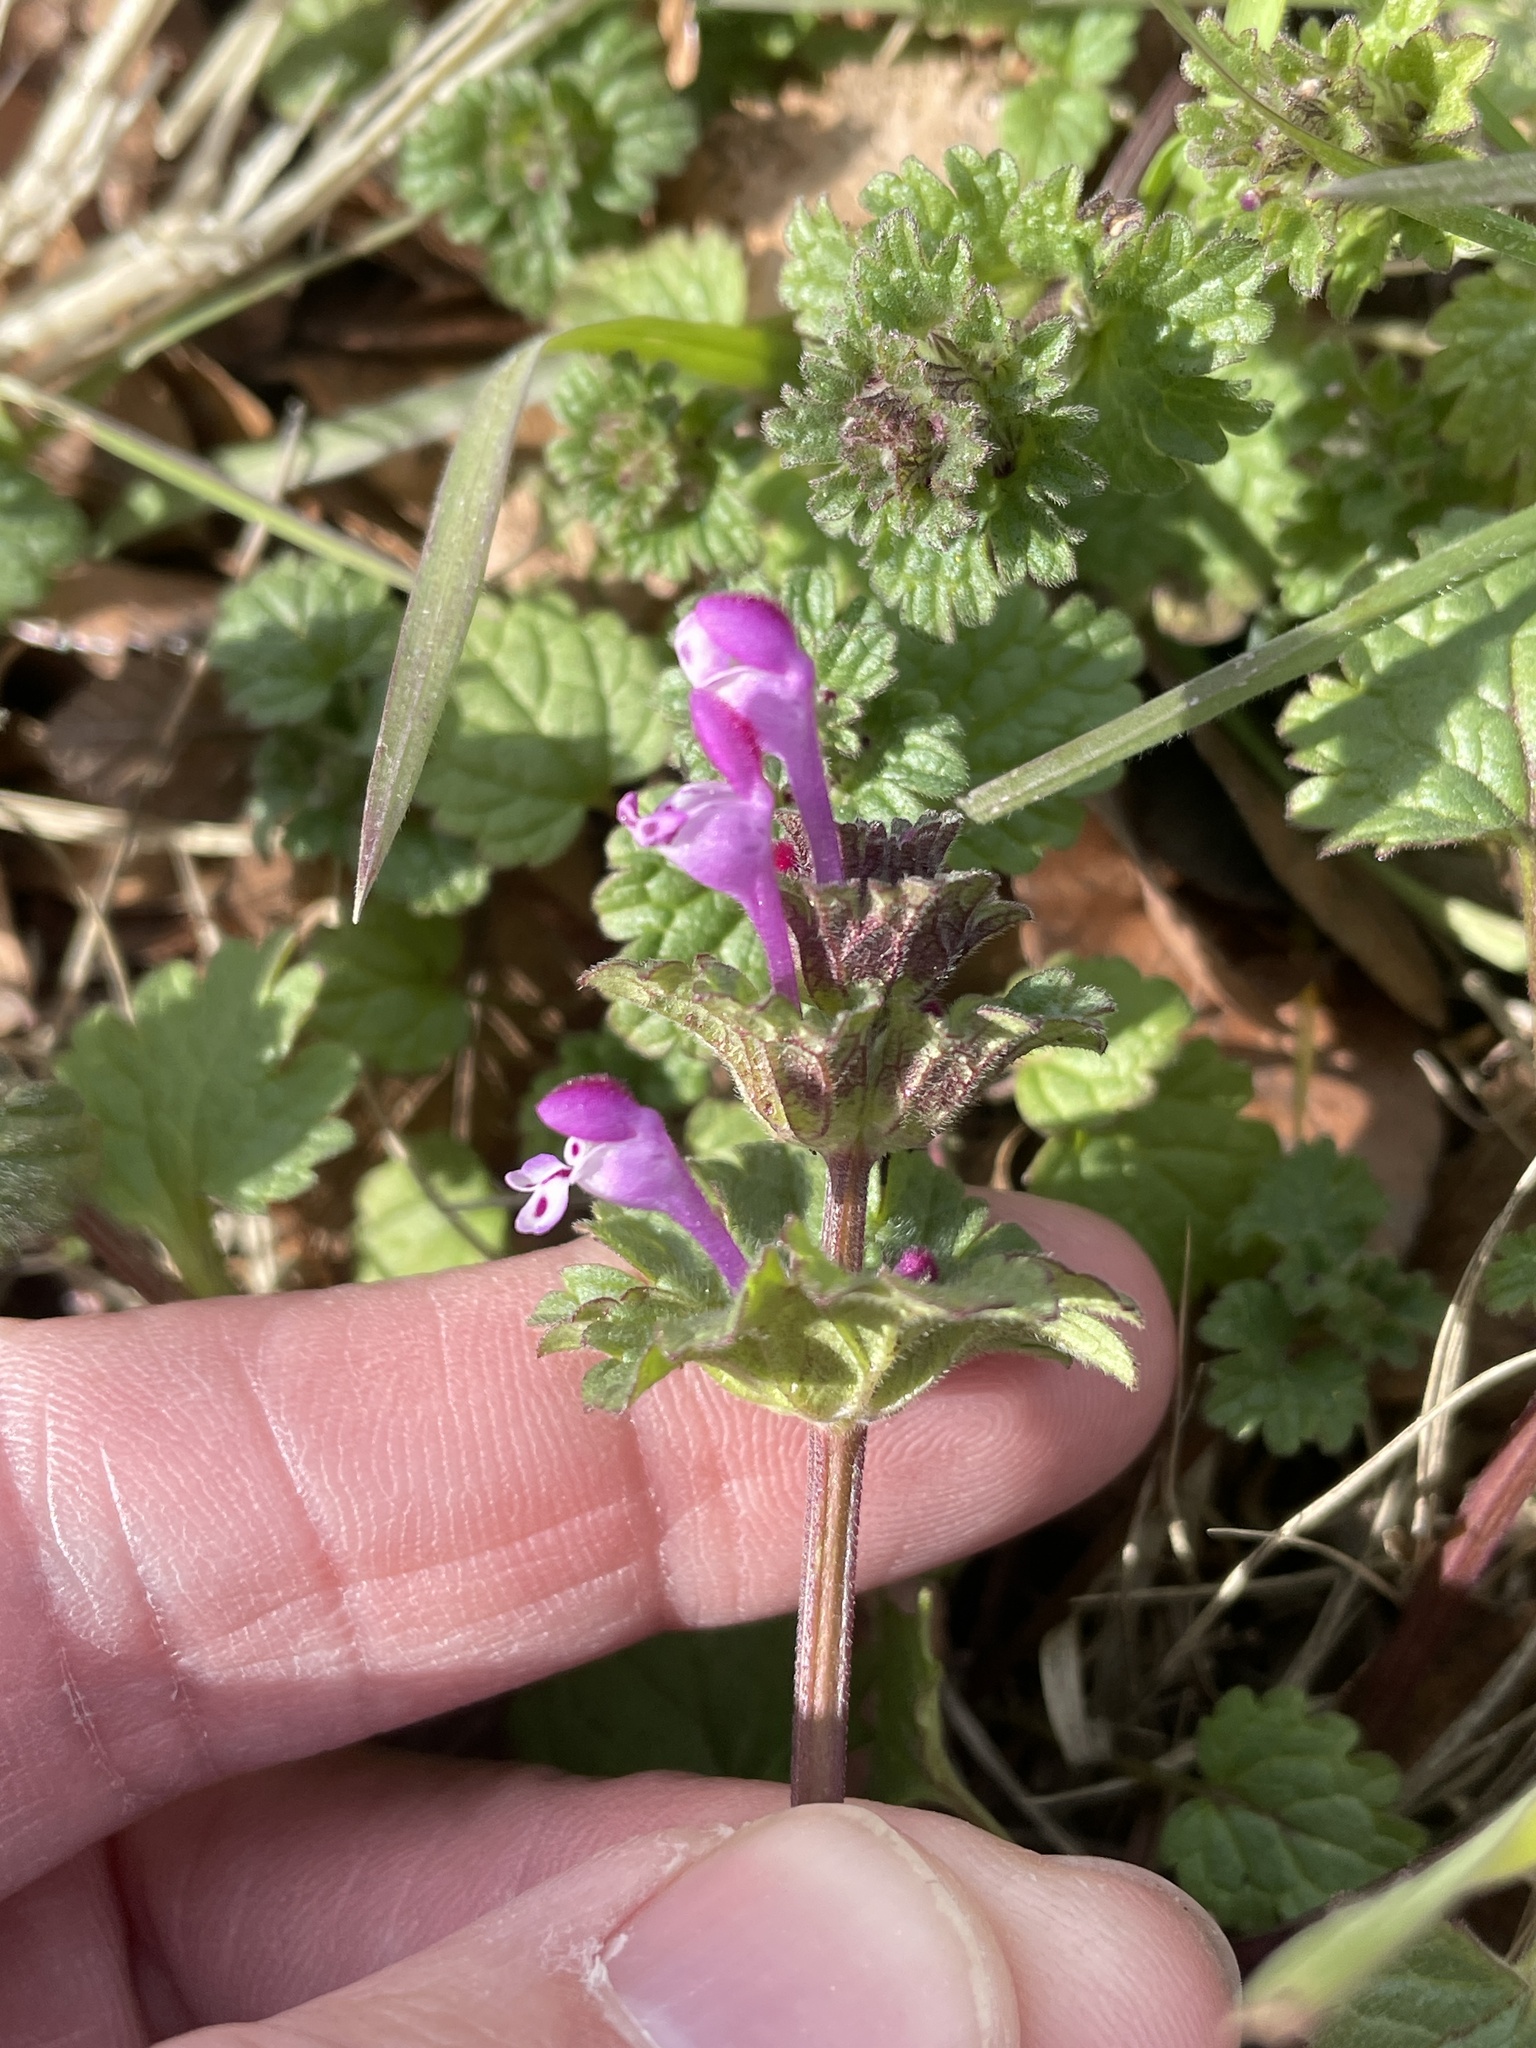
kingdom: Plantae
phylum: Tracheophyta
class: Magnoliopsida
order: Lamiales
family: Lamiaceae
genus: Lamium
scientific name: Lamium amplexicaule
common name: Henbit dead-nettle
